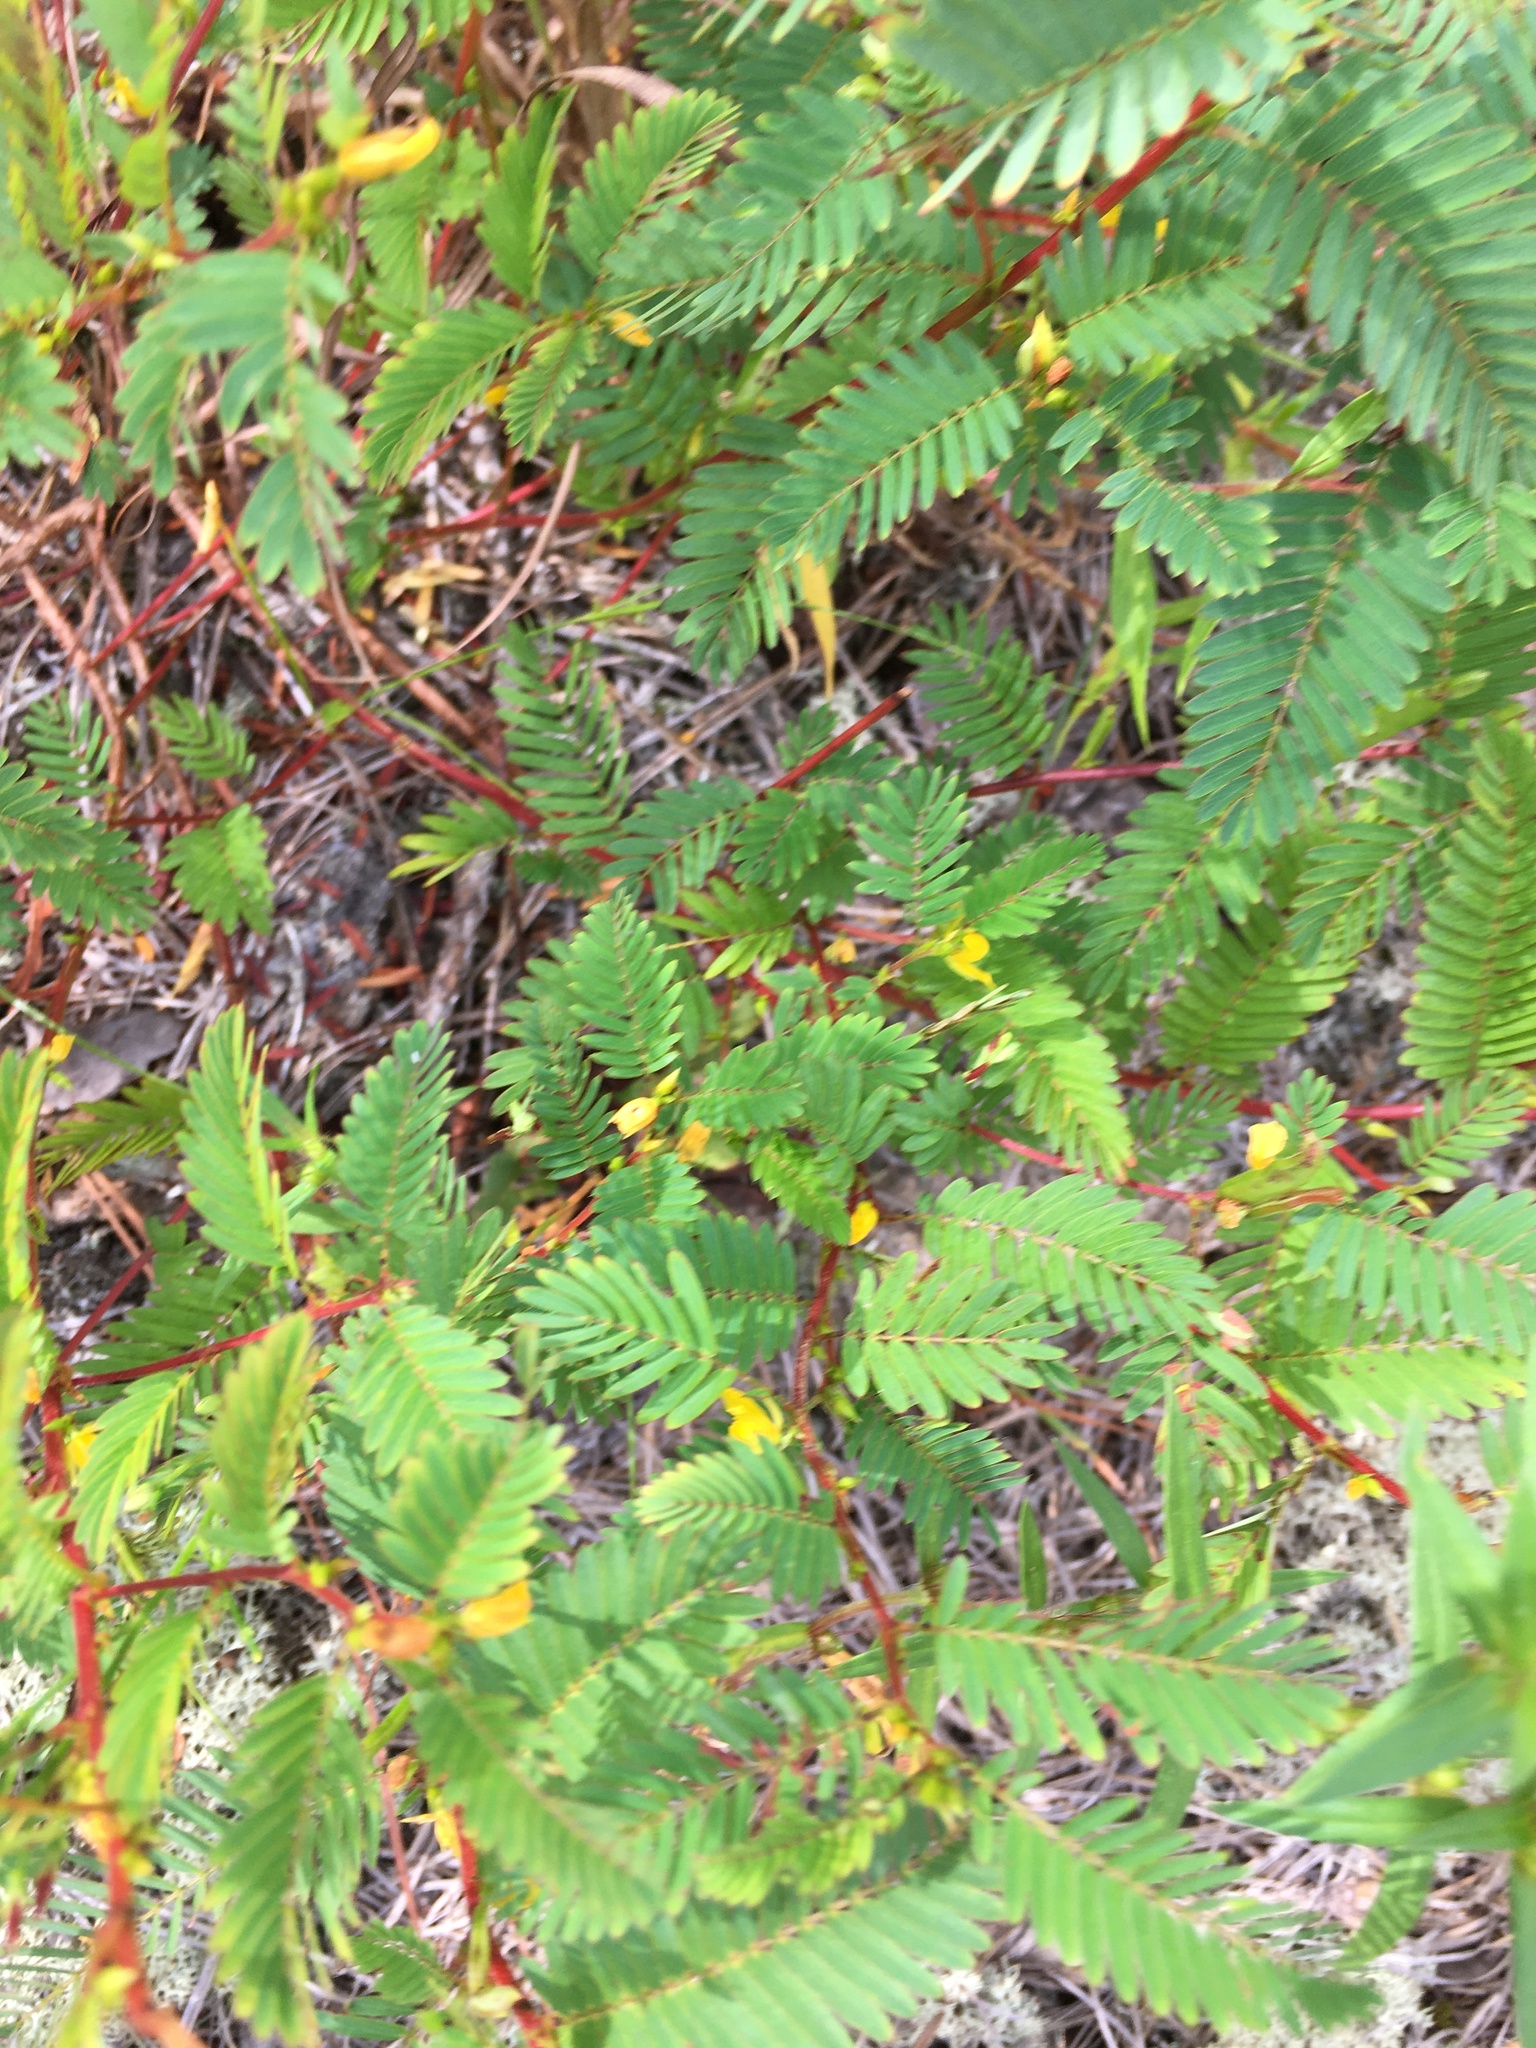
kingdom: Plantae
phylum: Tracheophyta
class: Magnoliopsida
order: Fabales
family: Fabaceae
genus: Chamaecrista
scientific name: Chamaecrista nictitans
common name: Sensitive cassia
